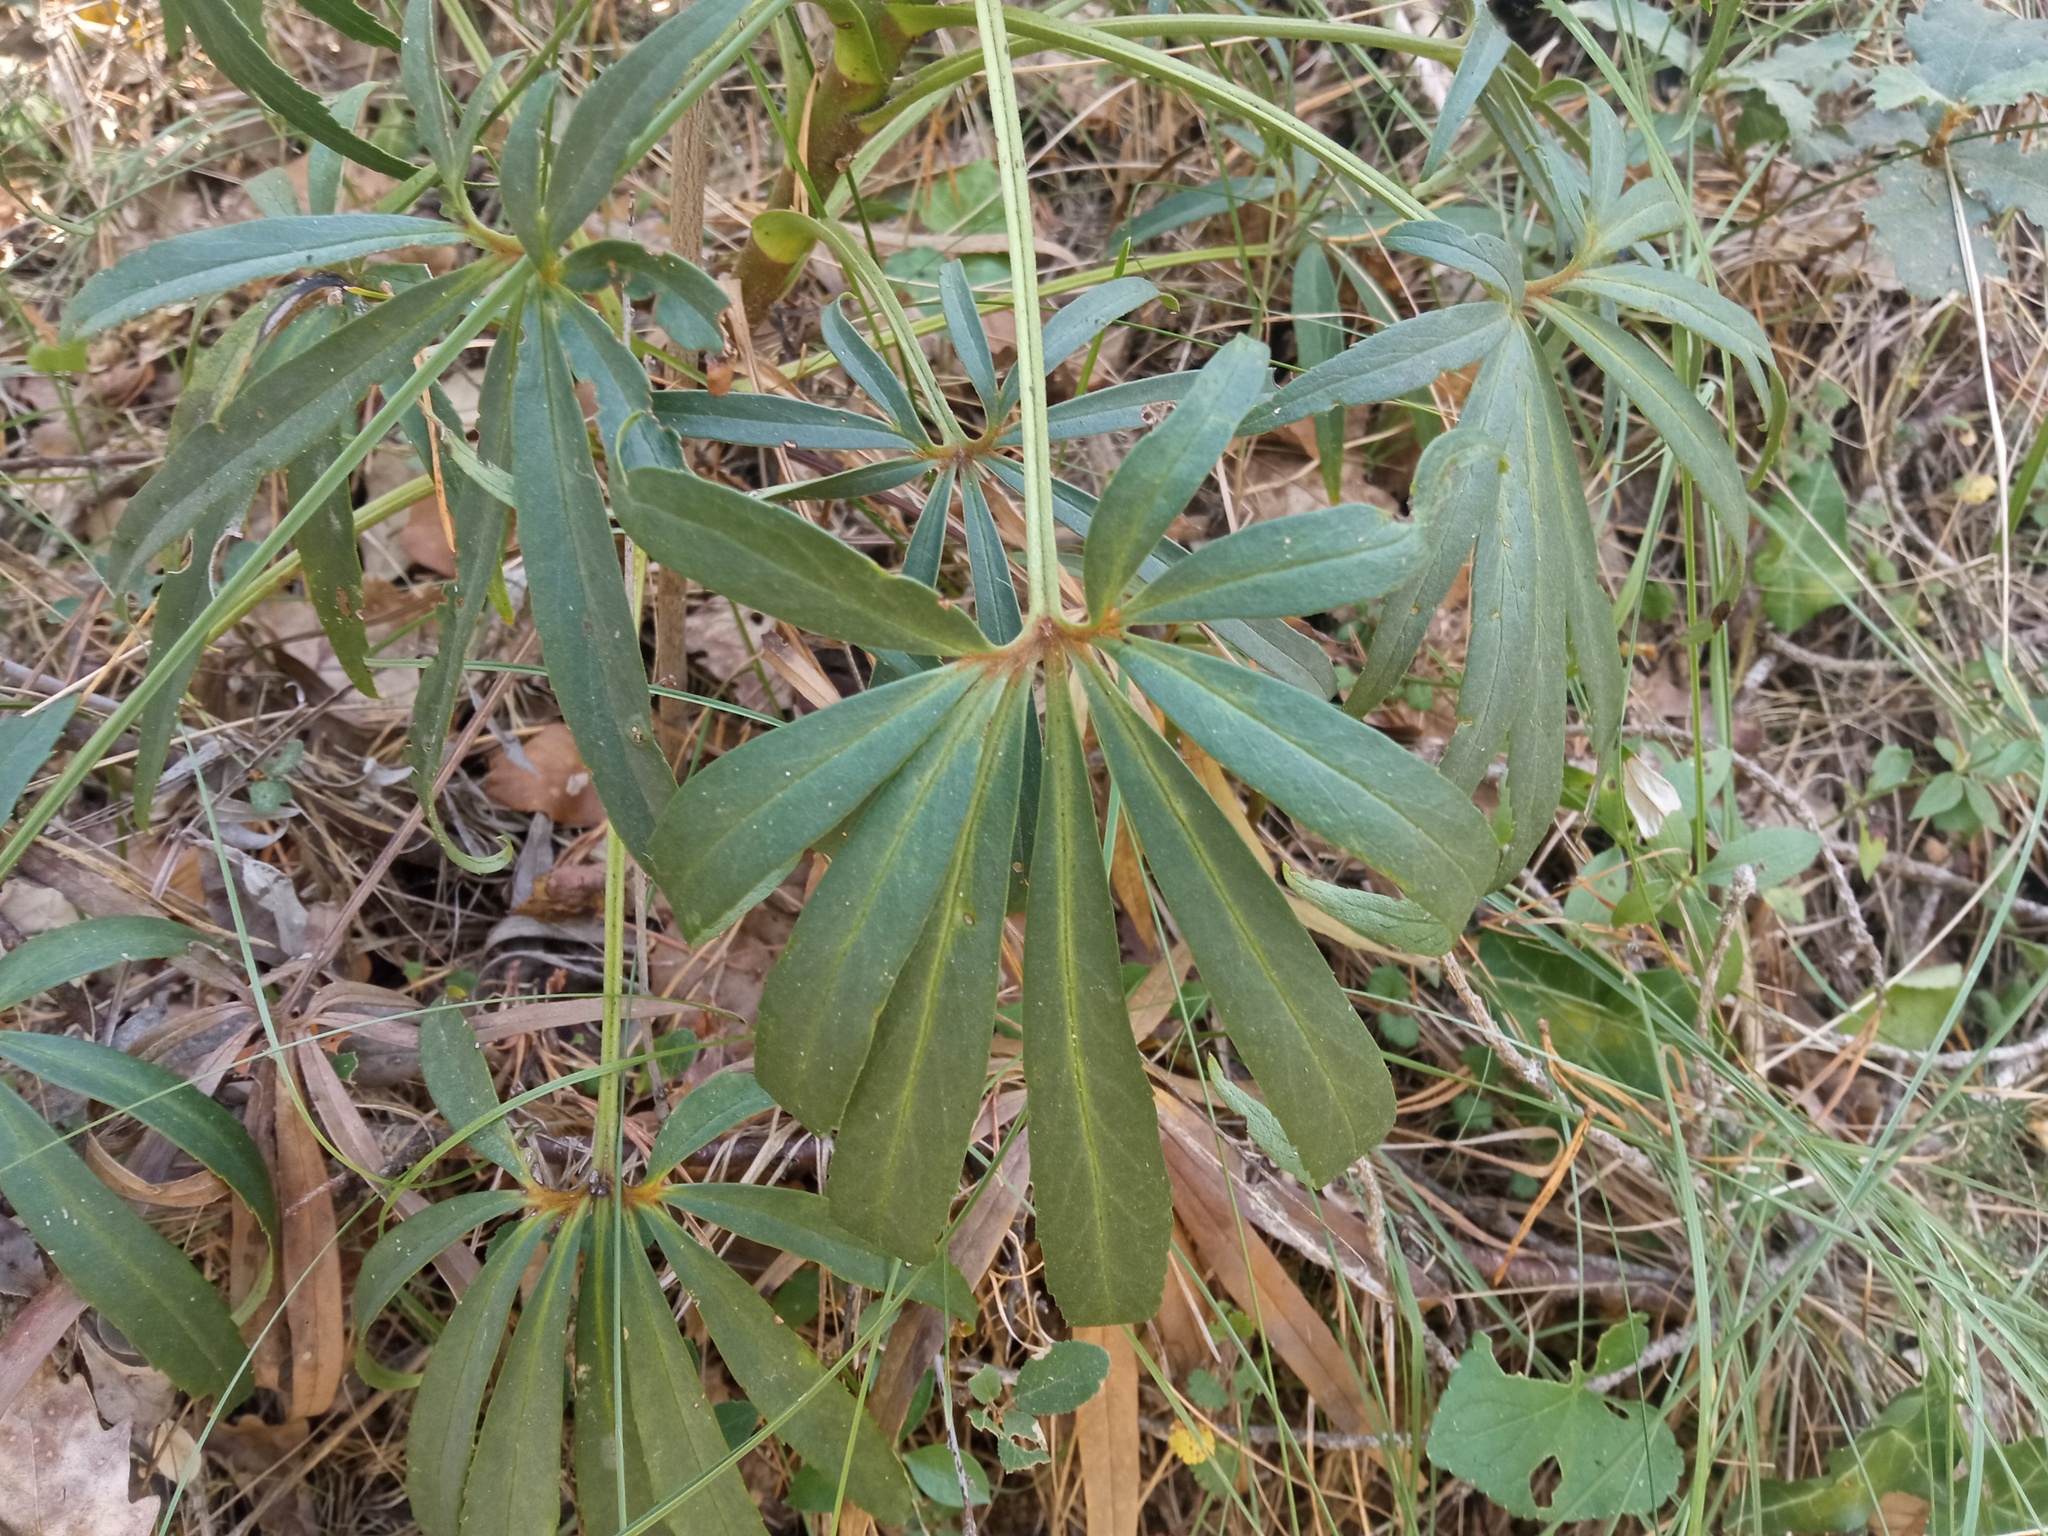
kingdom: Plantae
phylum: Tracheophyta
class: Magnoliopsida
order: Ranunculales
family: Ranunculaceae
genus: Helleborus
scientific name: Helleborus foetidus
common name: Stinking hellebore
